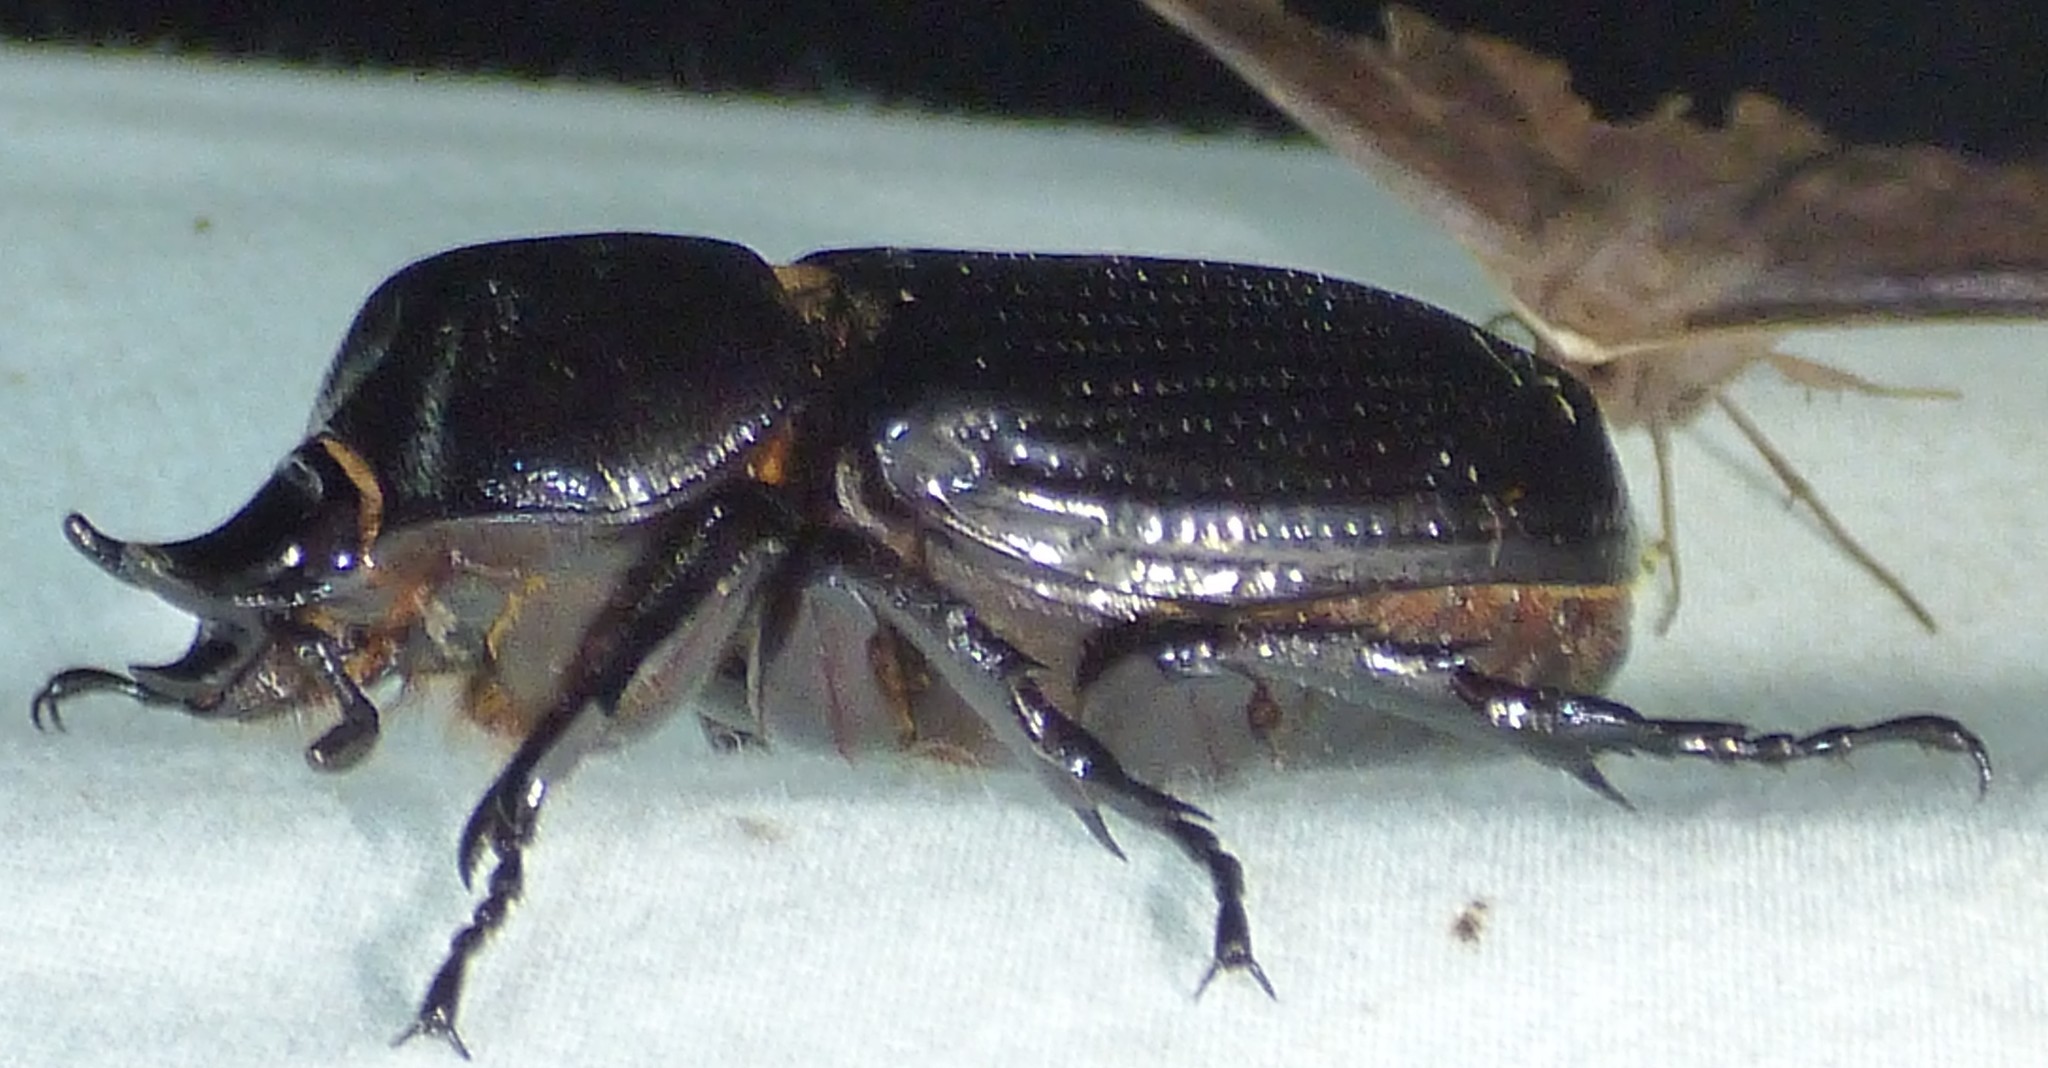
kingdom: Animalia
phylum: Arthropoda
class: Insecta
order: Coleoptera
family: Scarabaeidae
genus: Phileurus
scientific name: Phileurus truncatus
